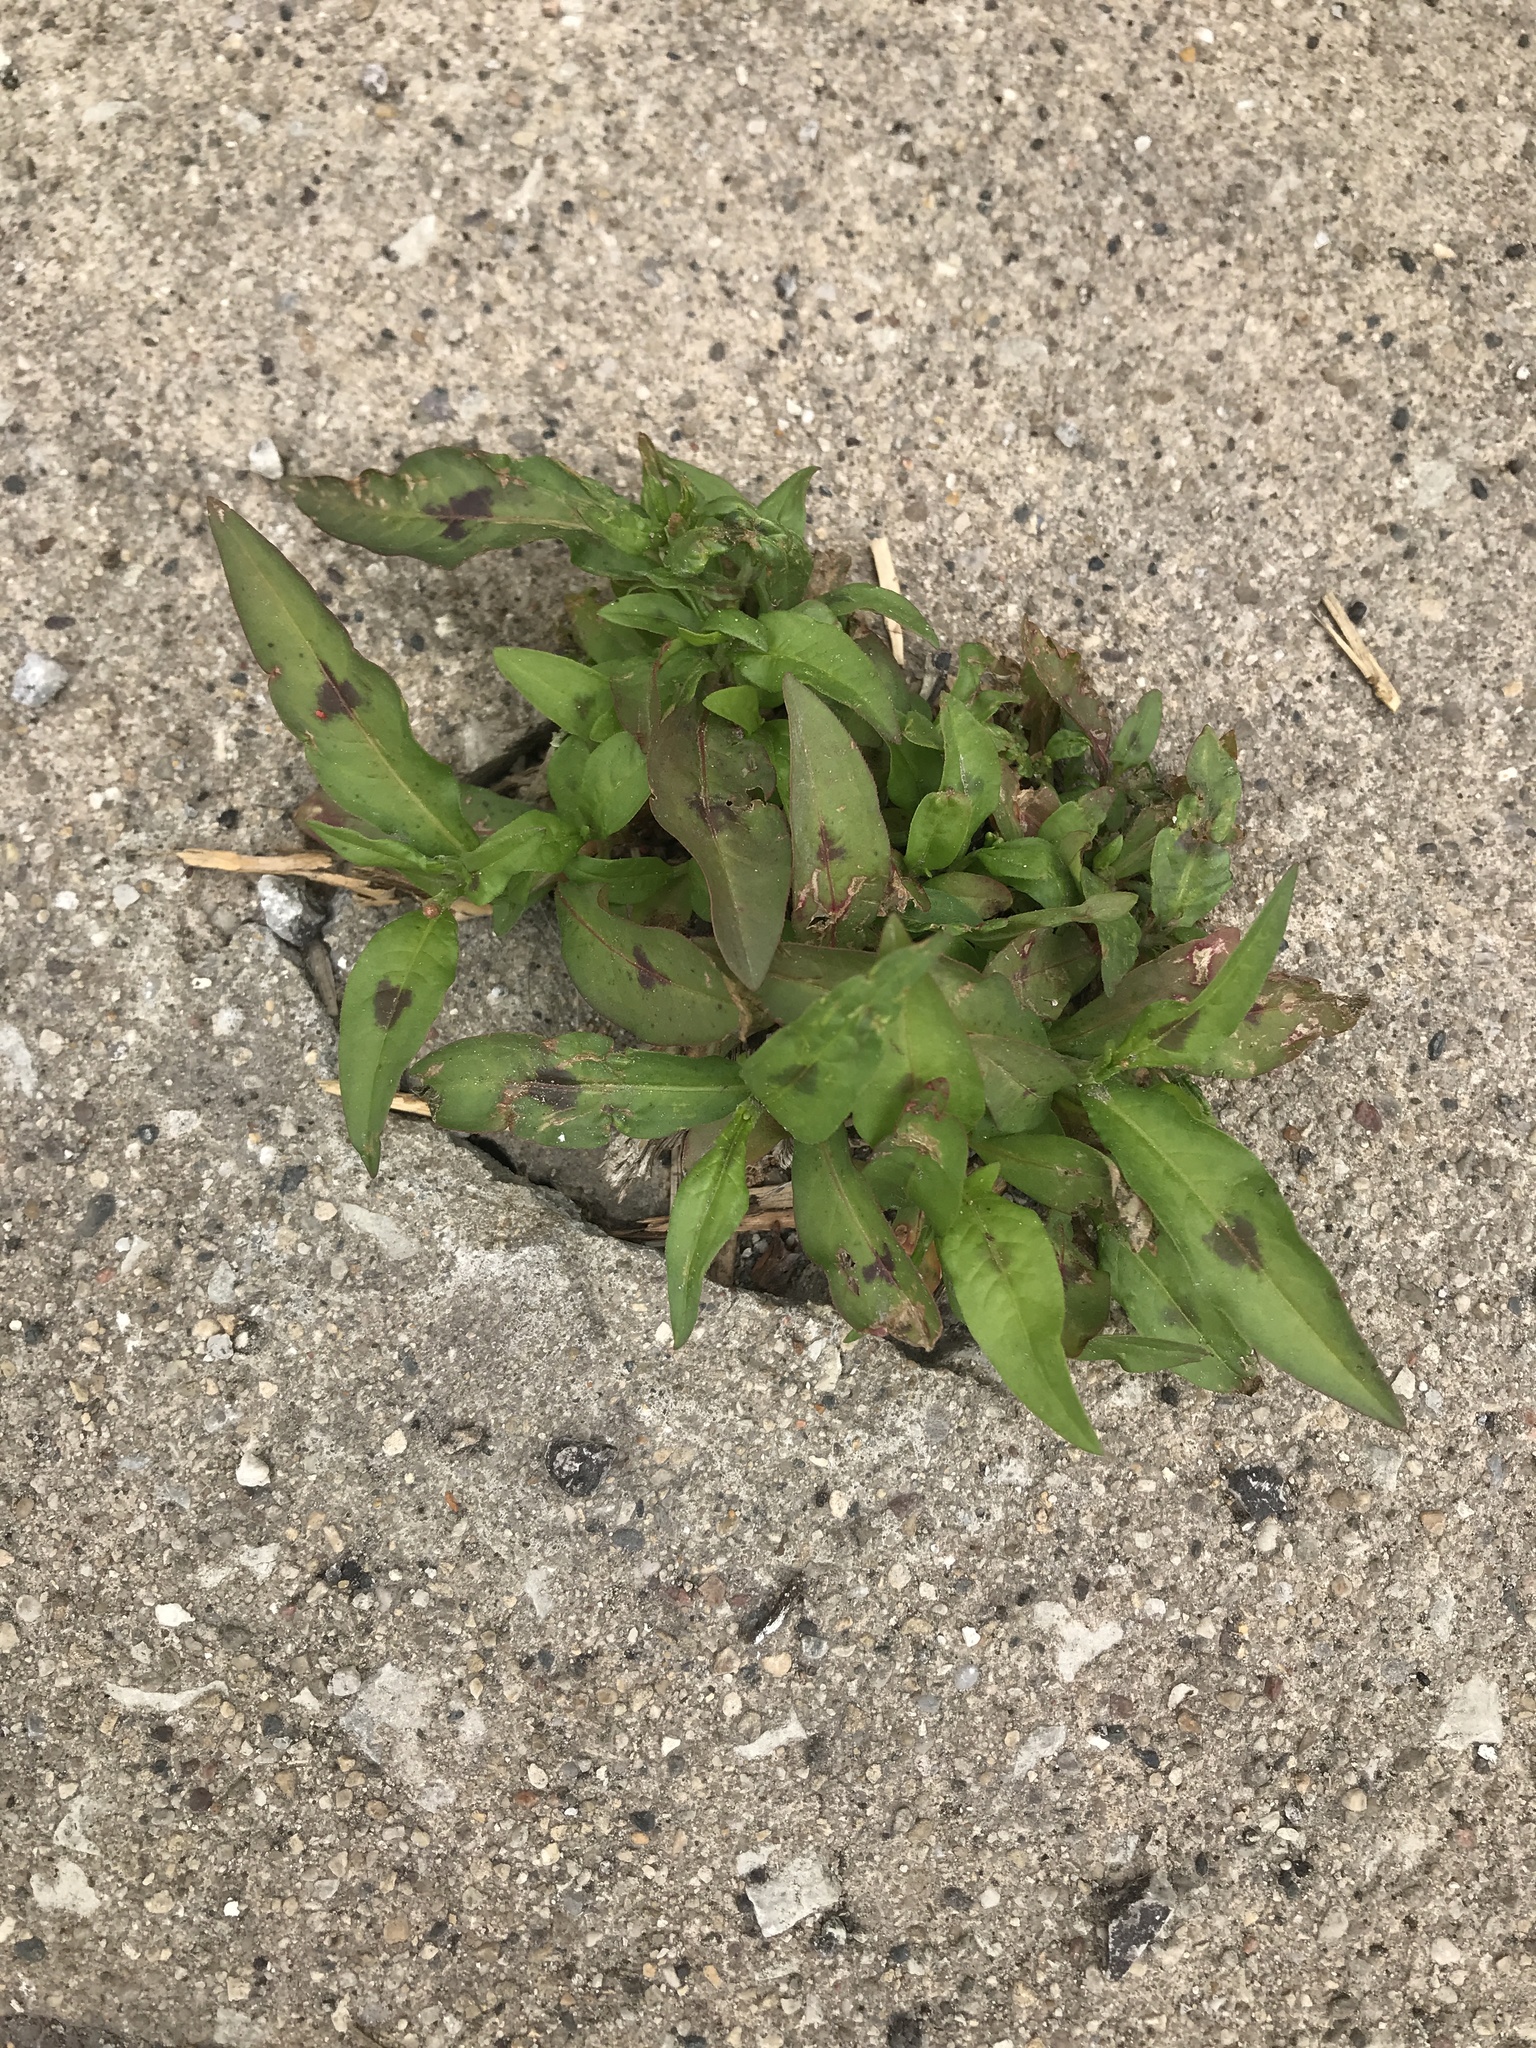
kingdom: Plantae
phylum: Tracheophyta
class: Magnoliopsida
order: Caryophyllales
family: Polygonaceae
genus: Persicaria
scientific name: Persicaria maculosa
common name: Redshank
